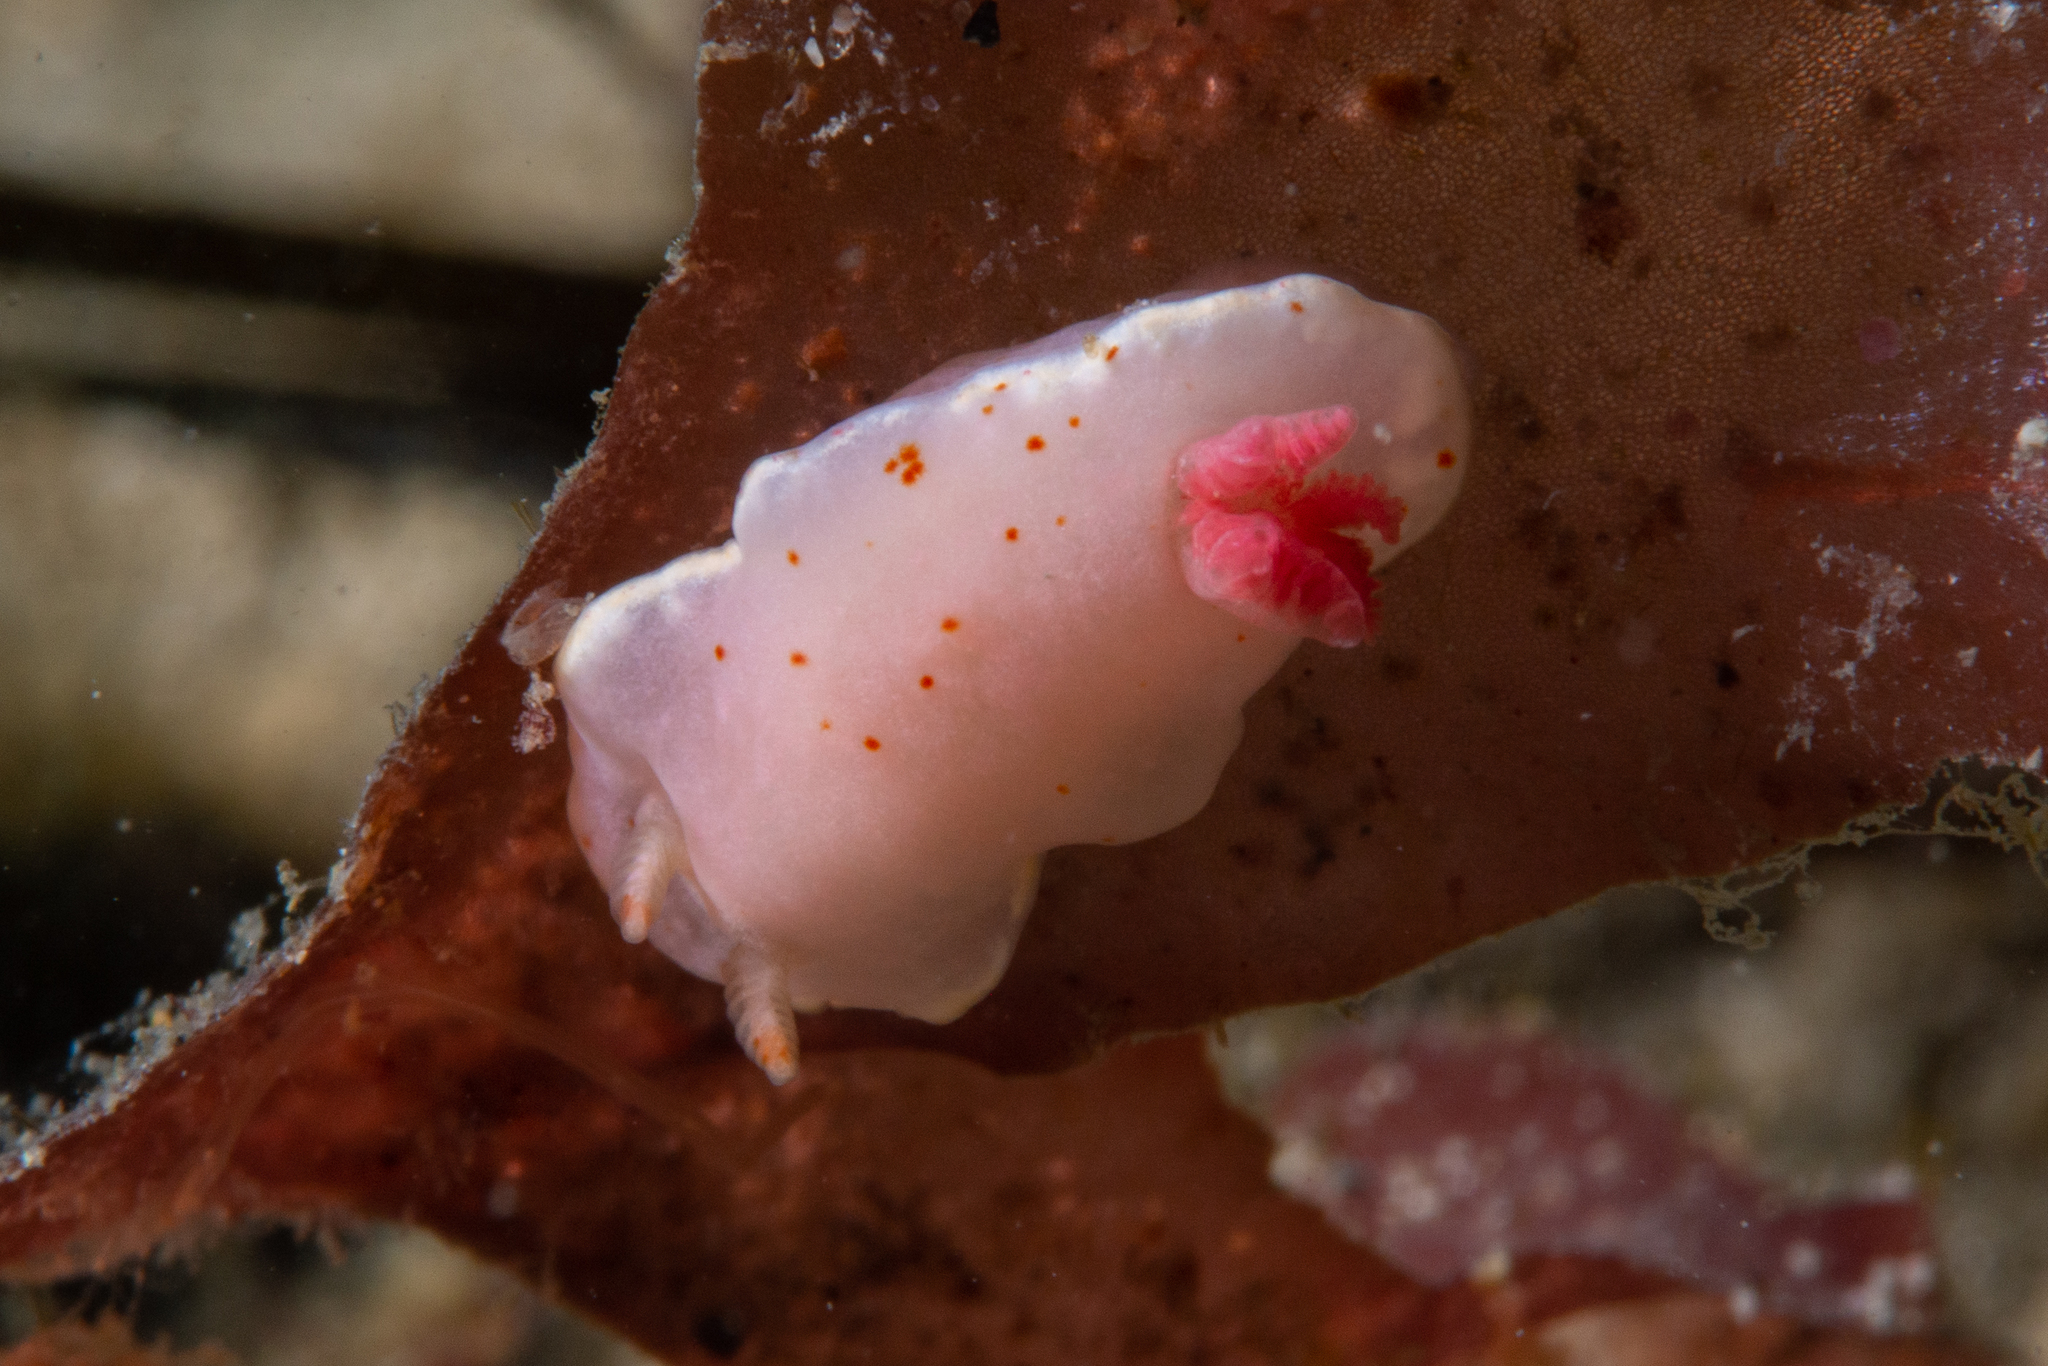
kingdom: Animalia
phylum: Mollusca
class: Gastropoda
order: Nudibranchia
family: Chromodorididae
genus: Verconia
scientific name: Verconia haliclona
